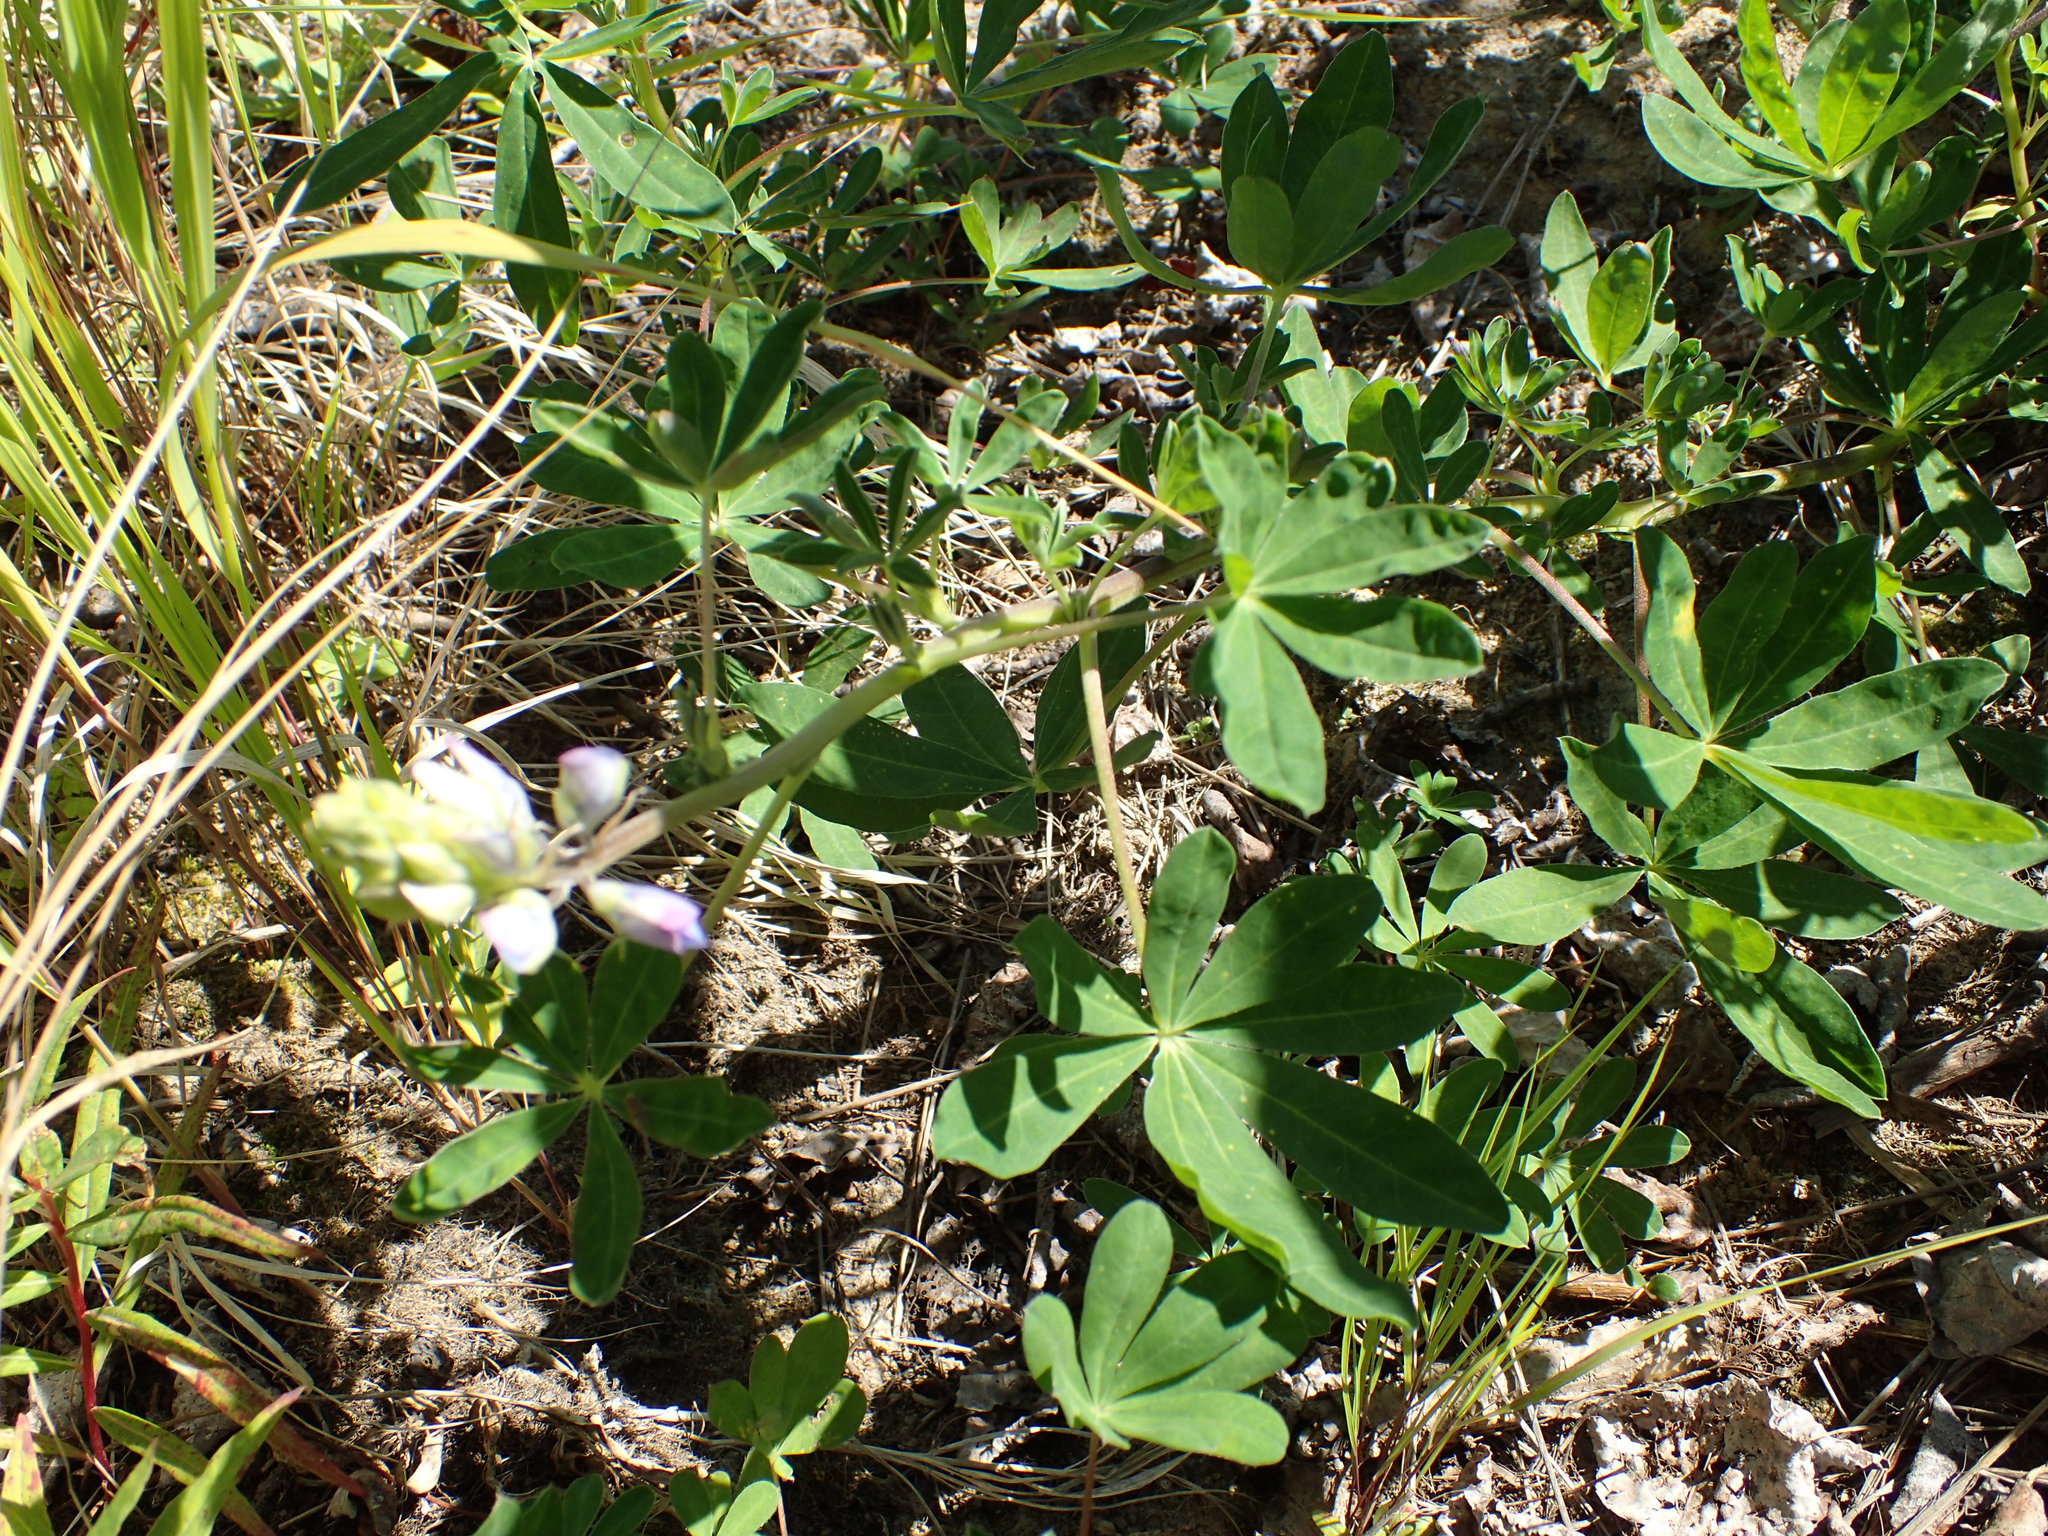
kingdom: Plantae
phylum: Tracheophyta
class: Magnoliopsida
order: Fabales
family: Fabaceae
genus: Lupinus
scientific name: Lupinus nootkatensis
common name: Nootka lupine
